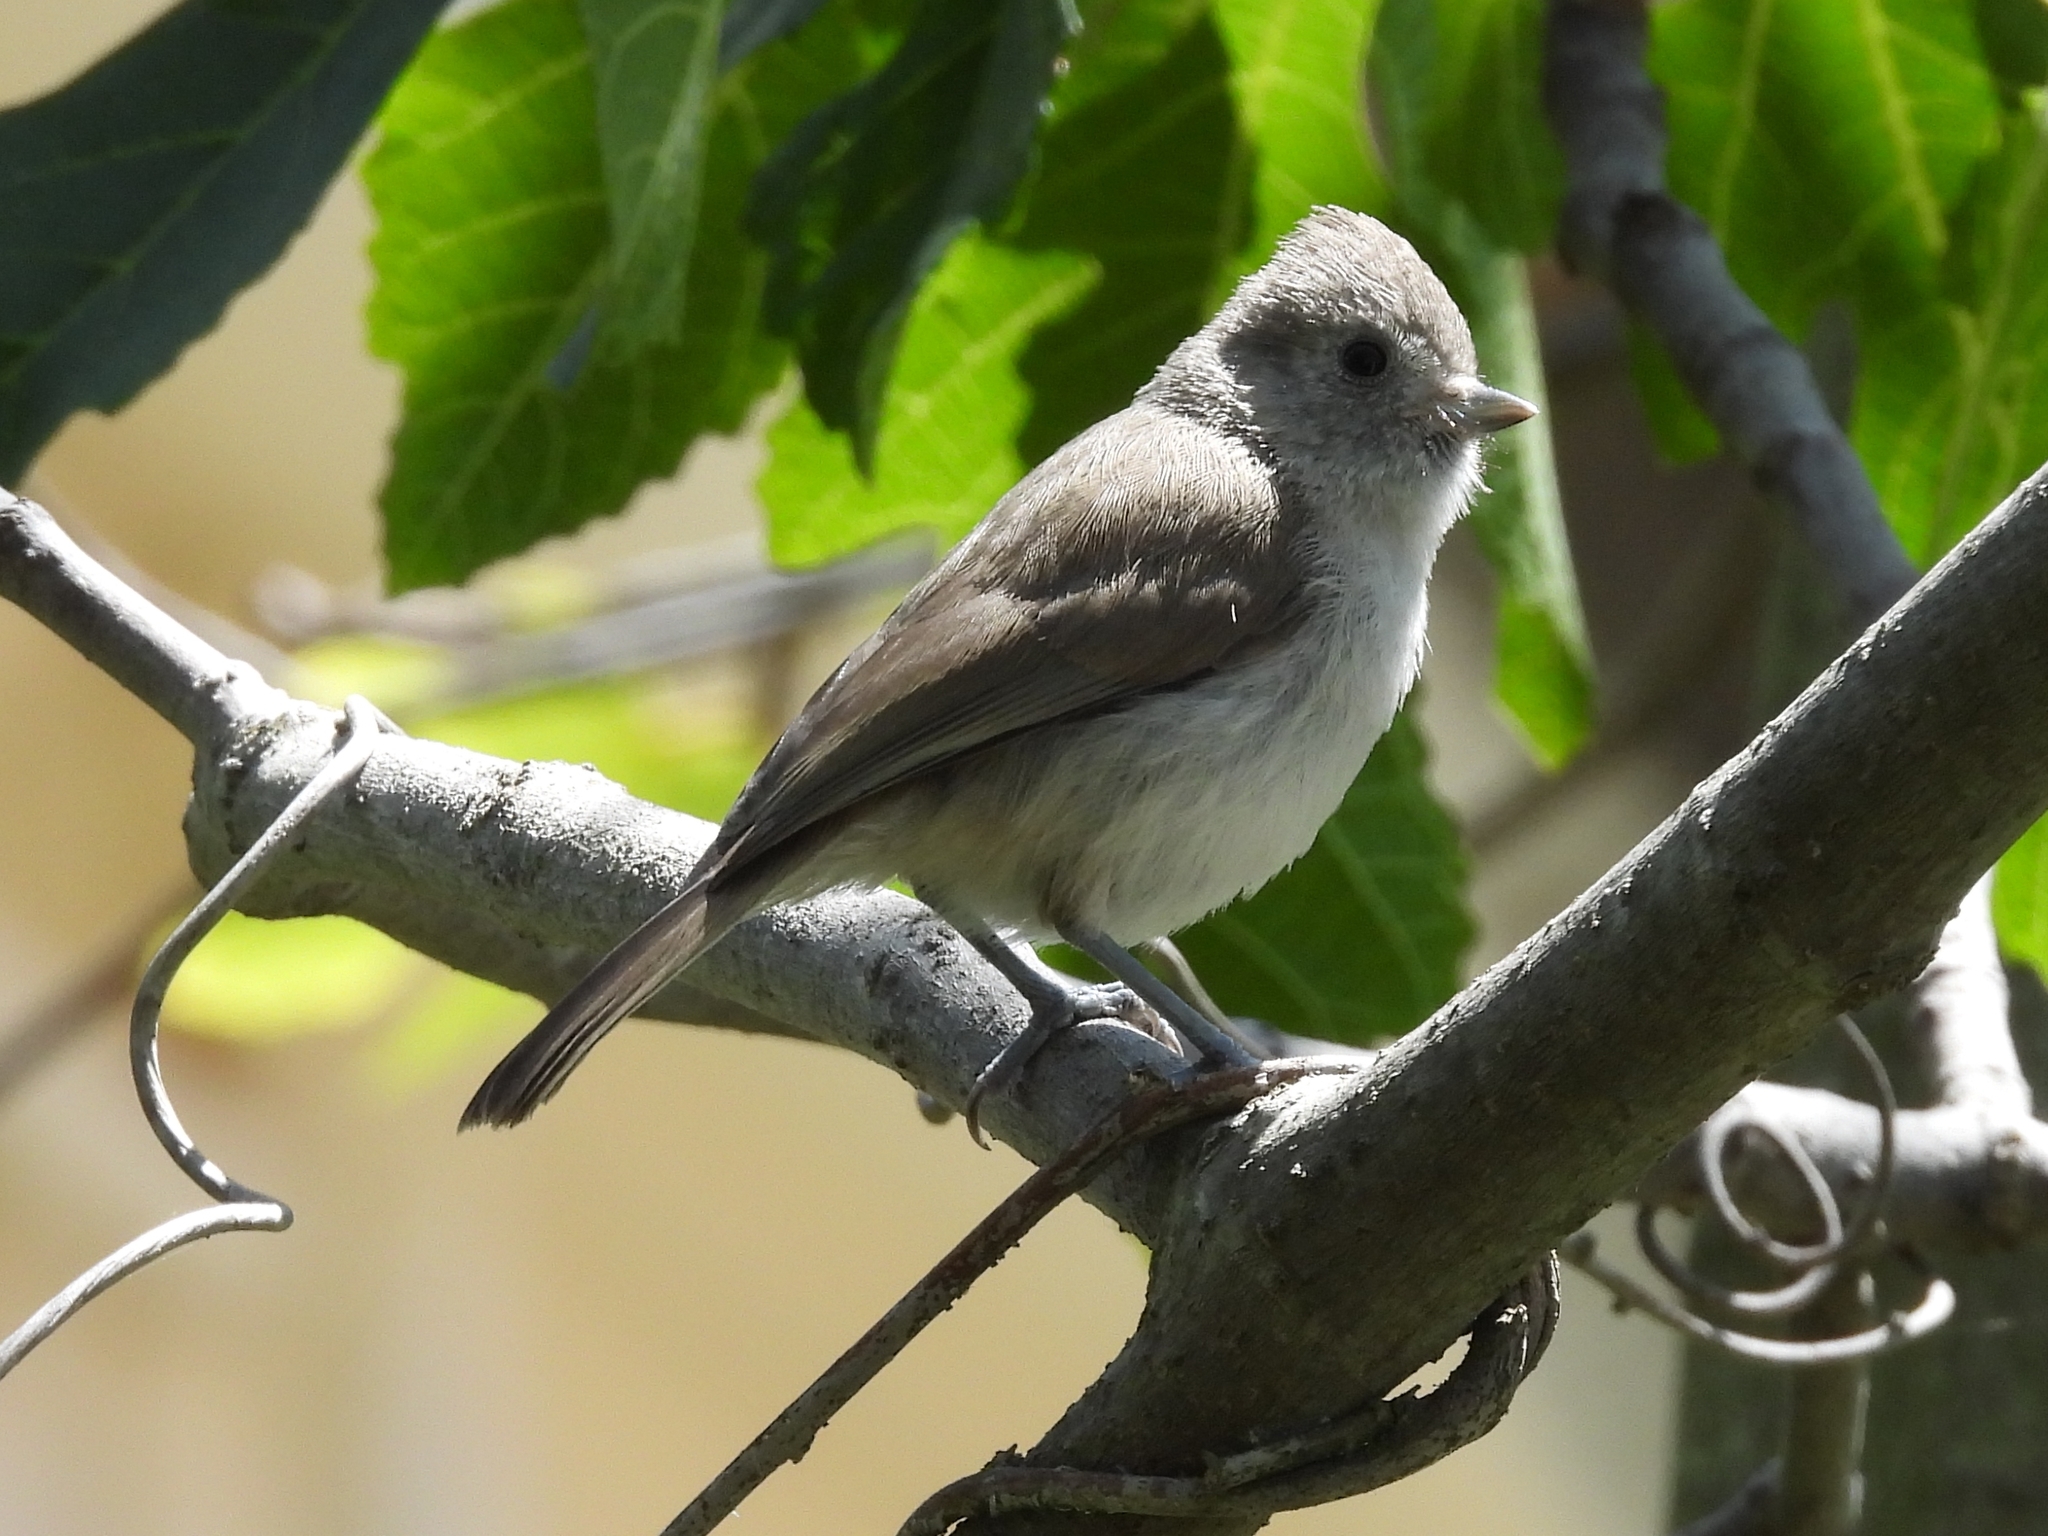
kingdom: Animalia
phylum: Chordata
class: Aves
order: Passeriformes
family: Paridae
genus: Baeolophus
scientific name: Baeolophus inornatus
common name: Oak titmouse
